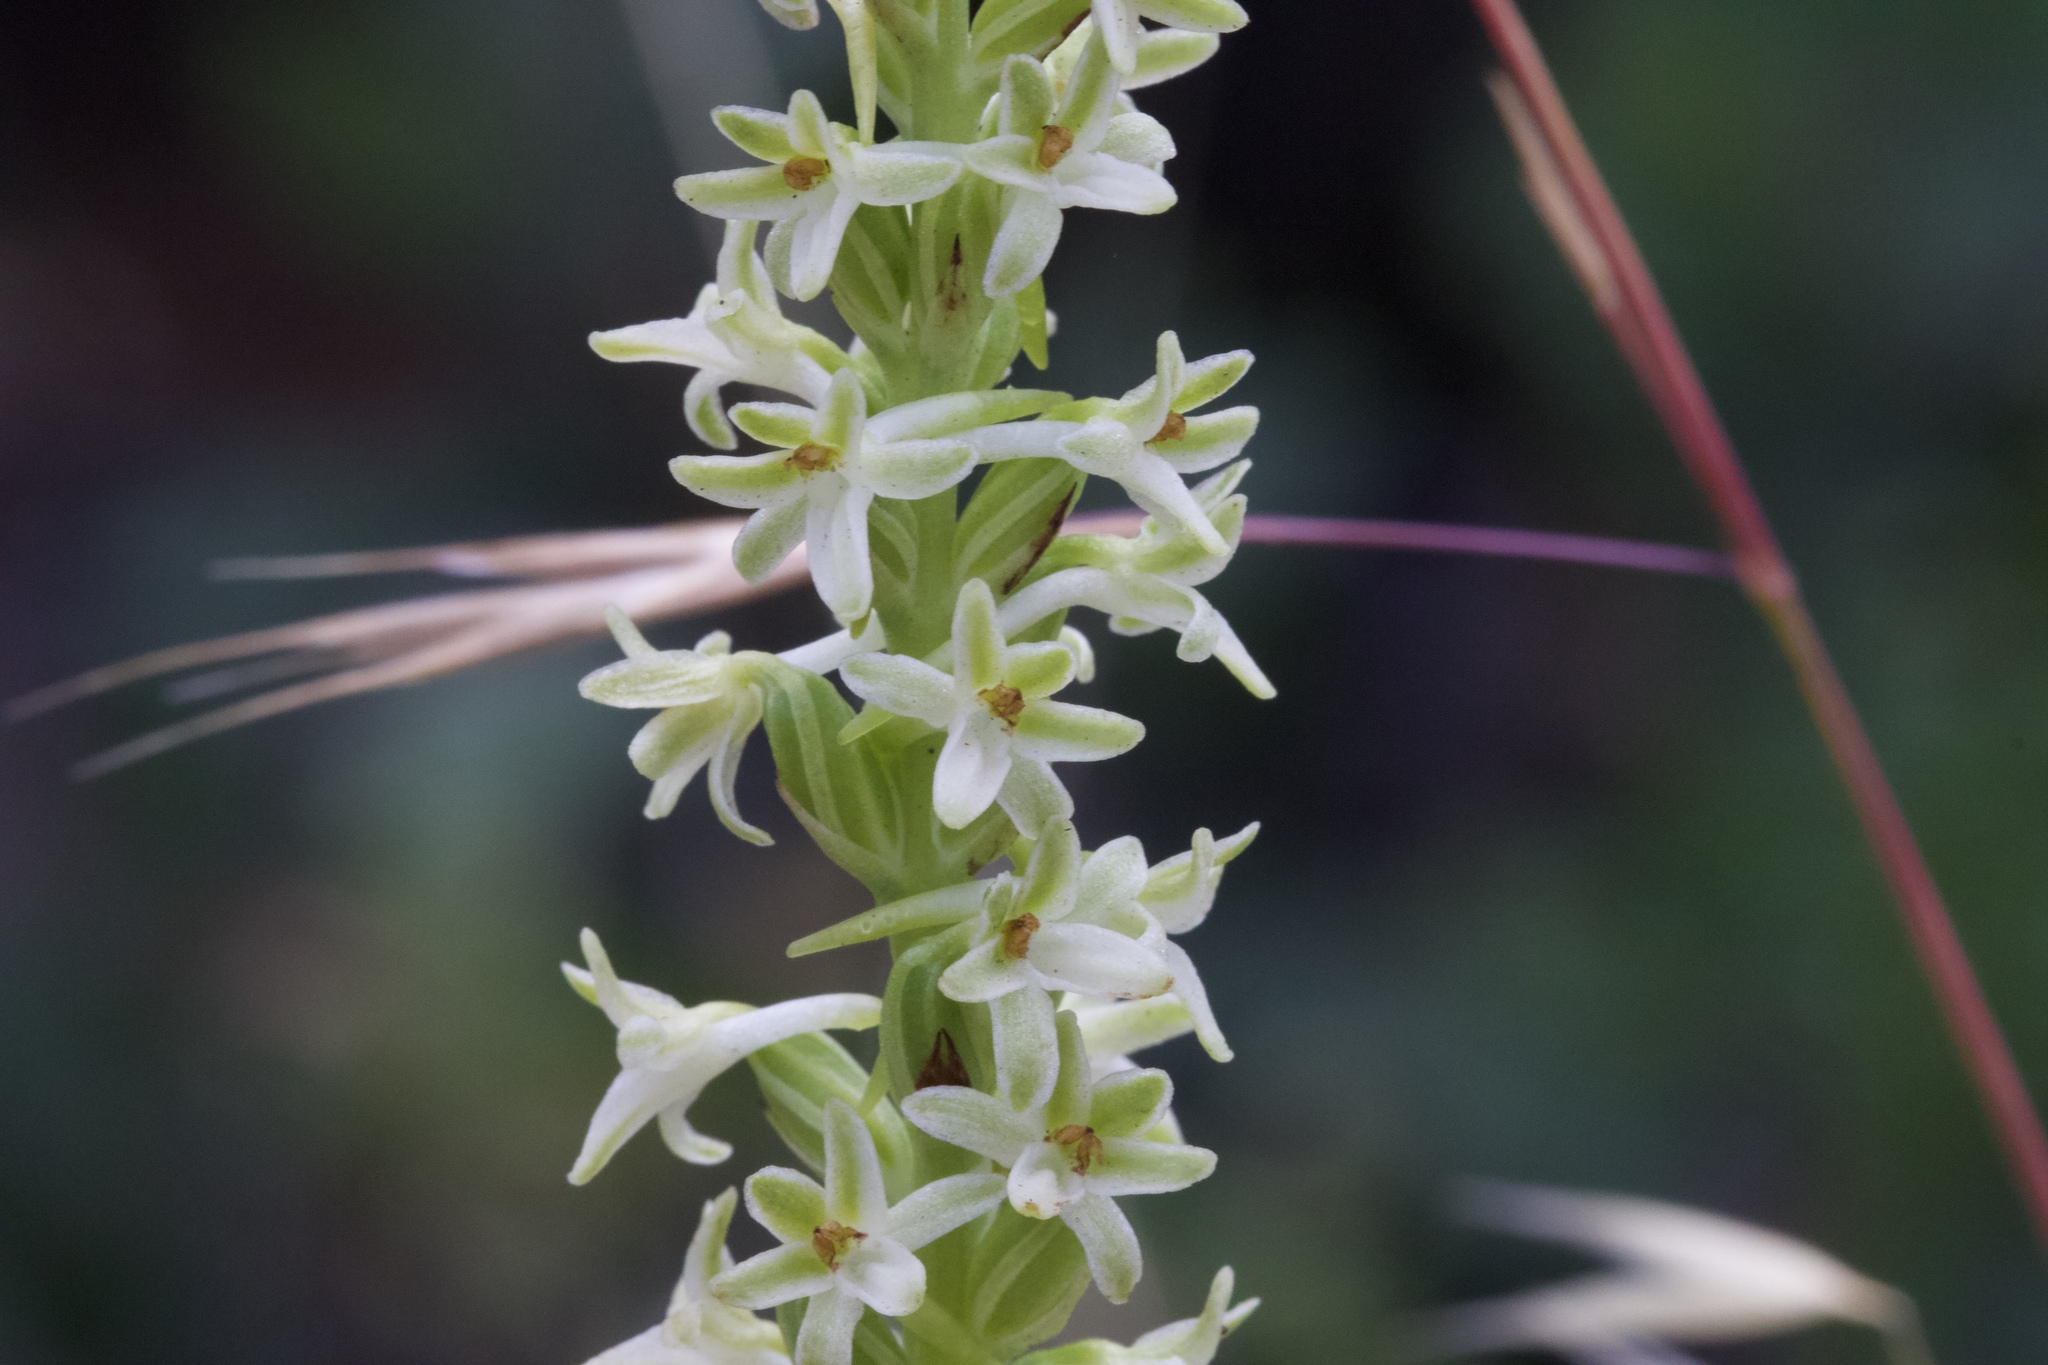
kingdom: Plantae
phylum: Tracheophyta
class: Liliopsida
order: Asparagales
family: Orchidaceae
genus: Platanthera
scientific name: Platanthera transversa
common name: Royal rein orchid
